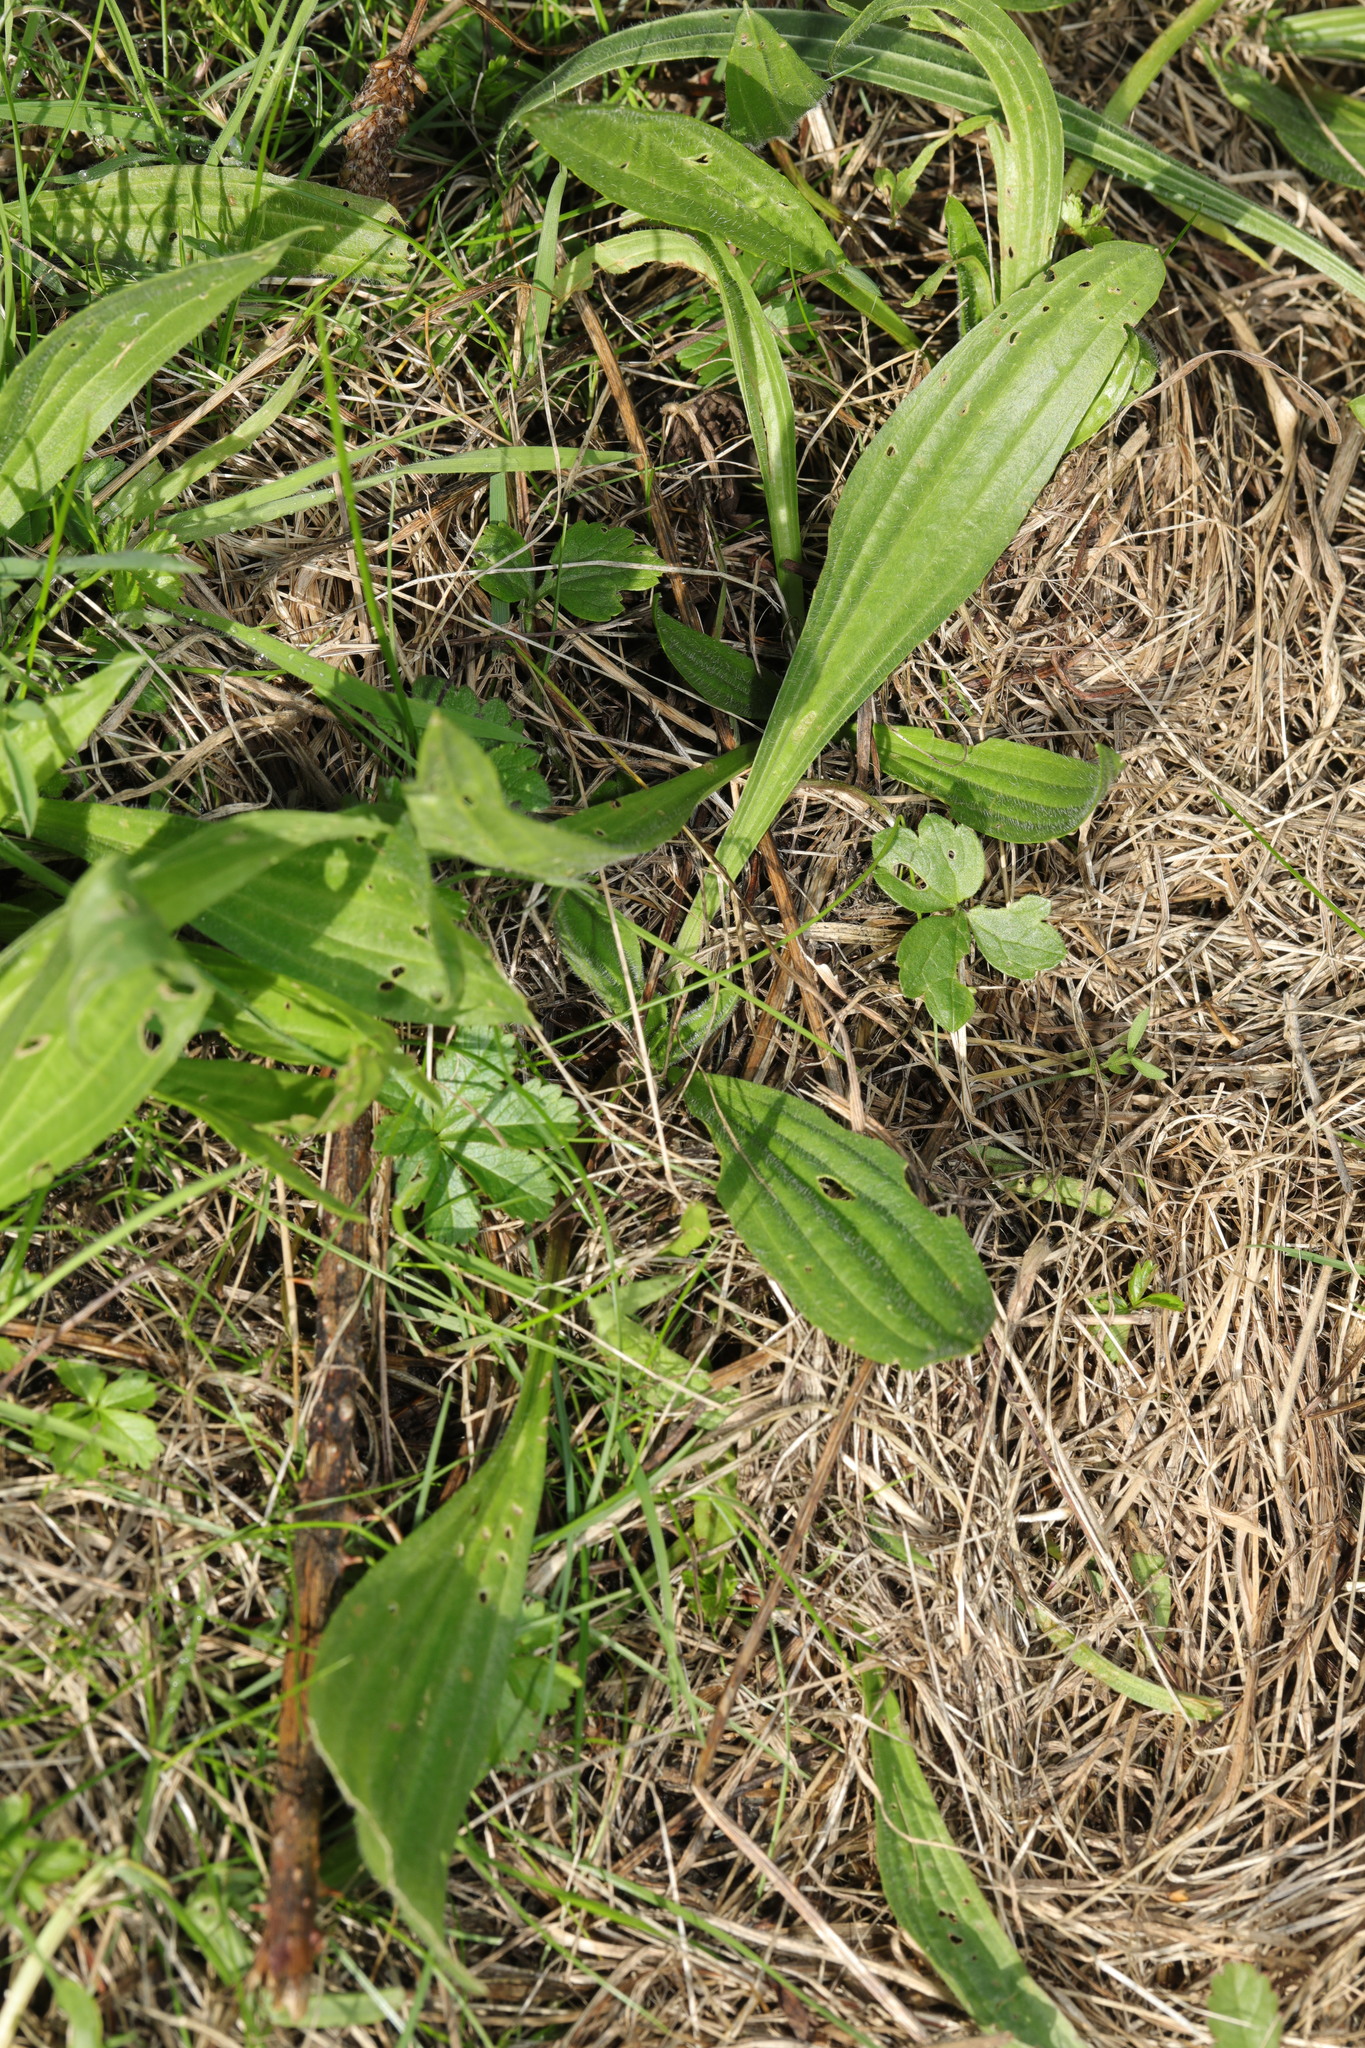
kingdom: Plantae
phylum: Tracheophyta
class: Magnoliopsida
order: Lamiales
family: Plantaginaceae
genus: Plantago
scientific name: Plantago lanceolata
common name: Ribwort plantain
